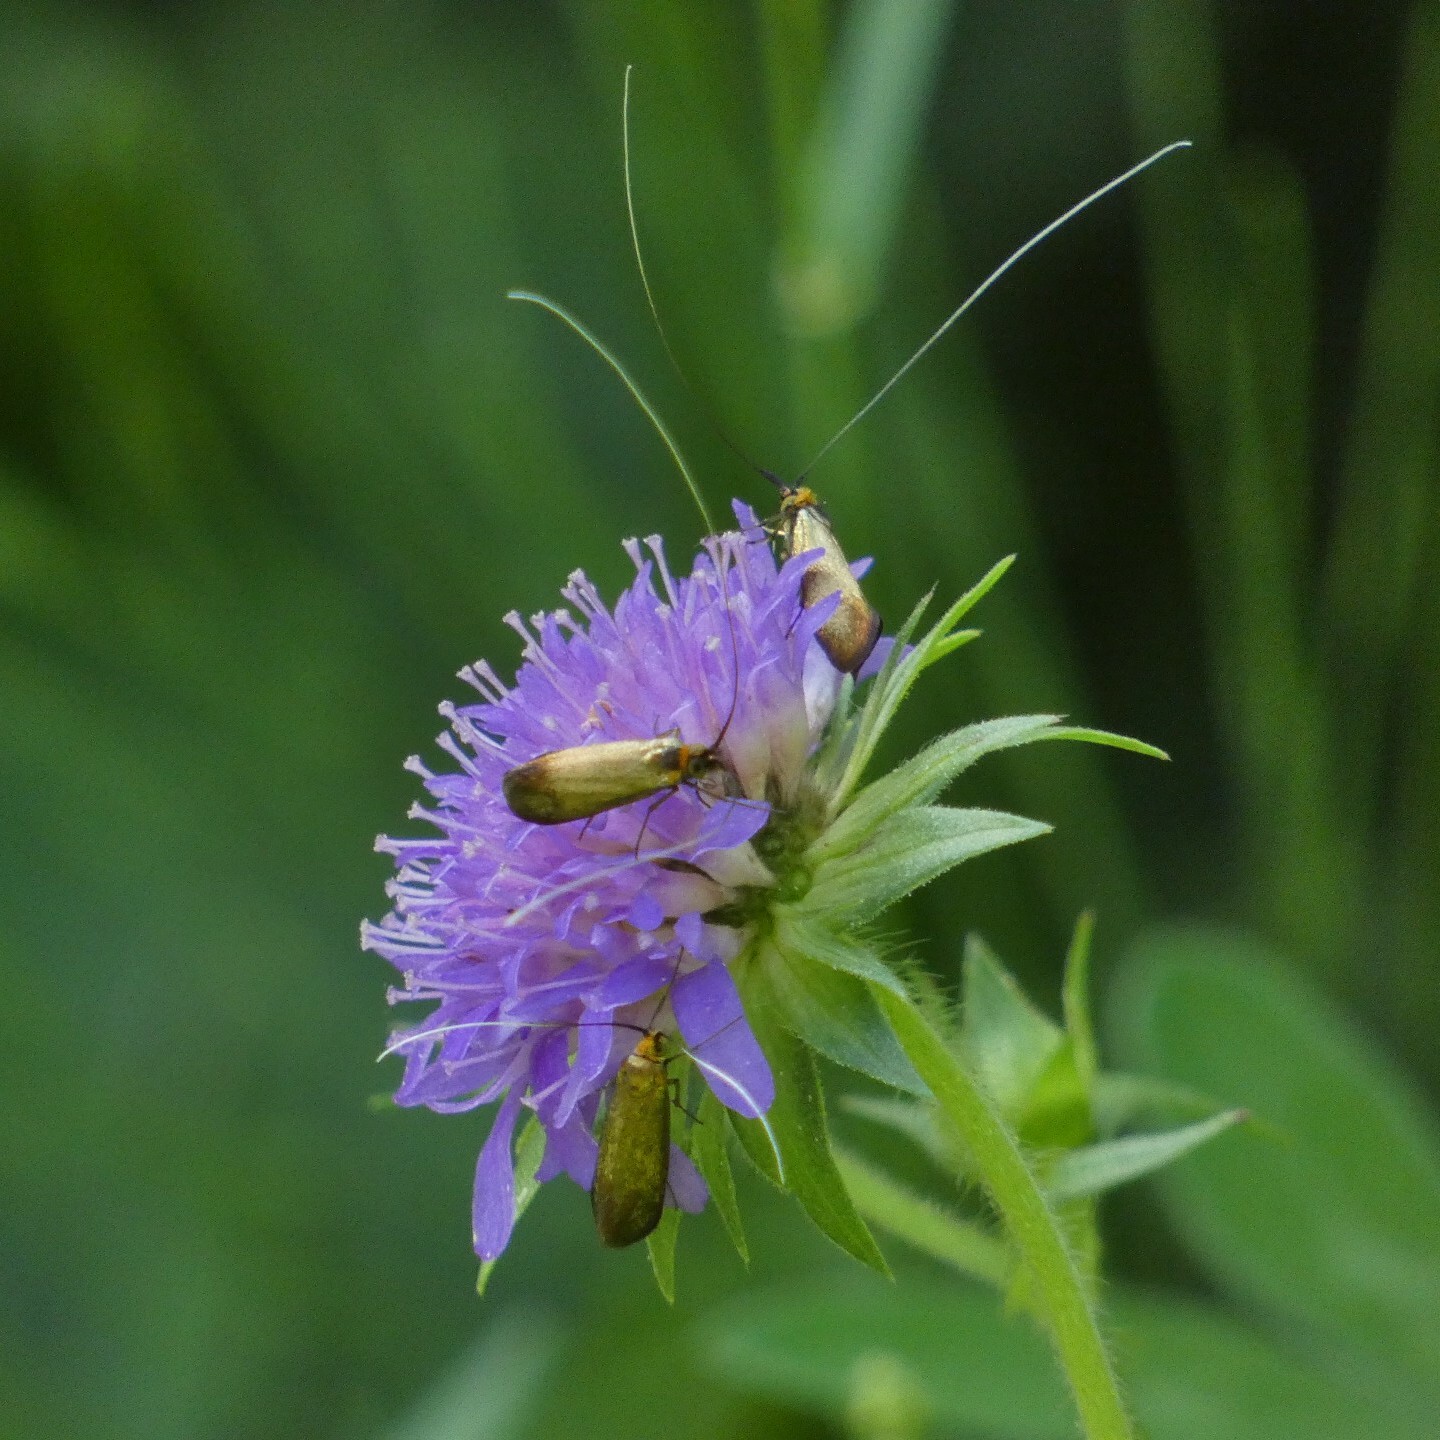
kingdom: Animalia
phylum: Arthropoda
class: Insecta
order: Lepidoptera
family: Adelidae
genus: Nemophora
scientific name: Nemophora metallica
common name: Brassy long-horn
